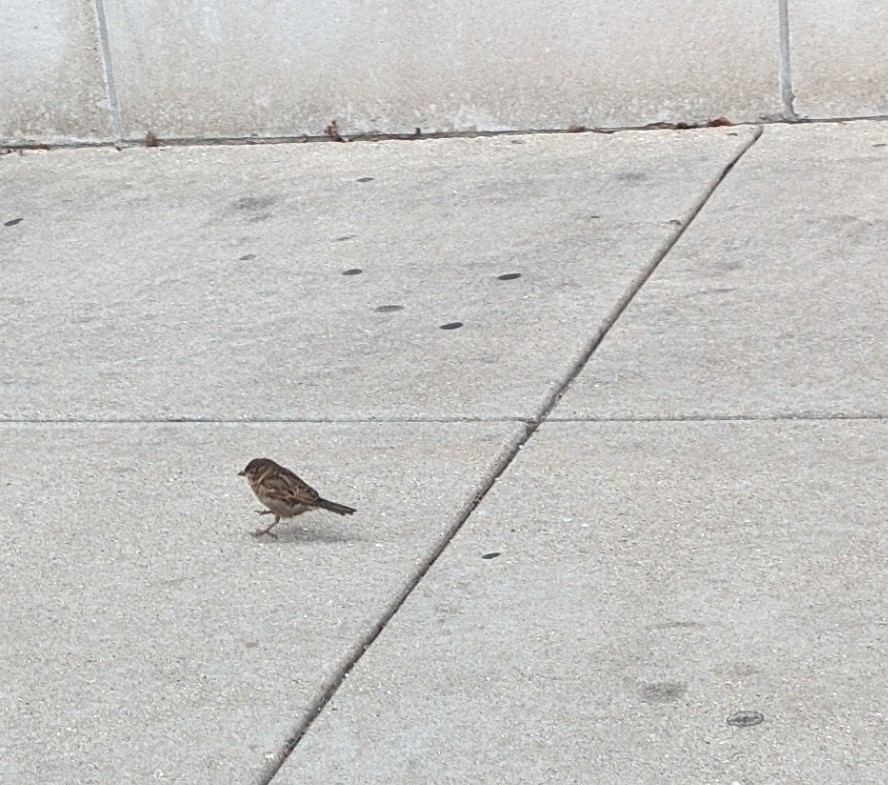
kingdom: Animalia
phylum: Chordata
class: Aves
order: Passeriformes
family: Passeridae
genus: Passer
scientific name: Passer domesticus
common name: House sparrow
